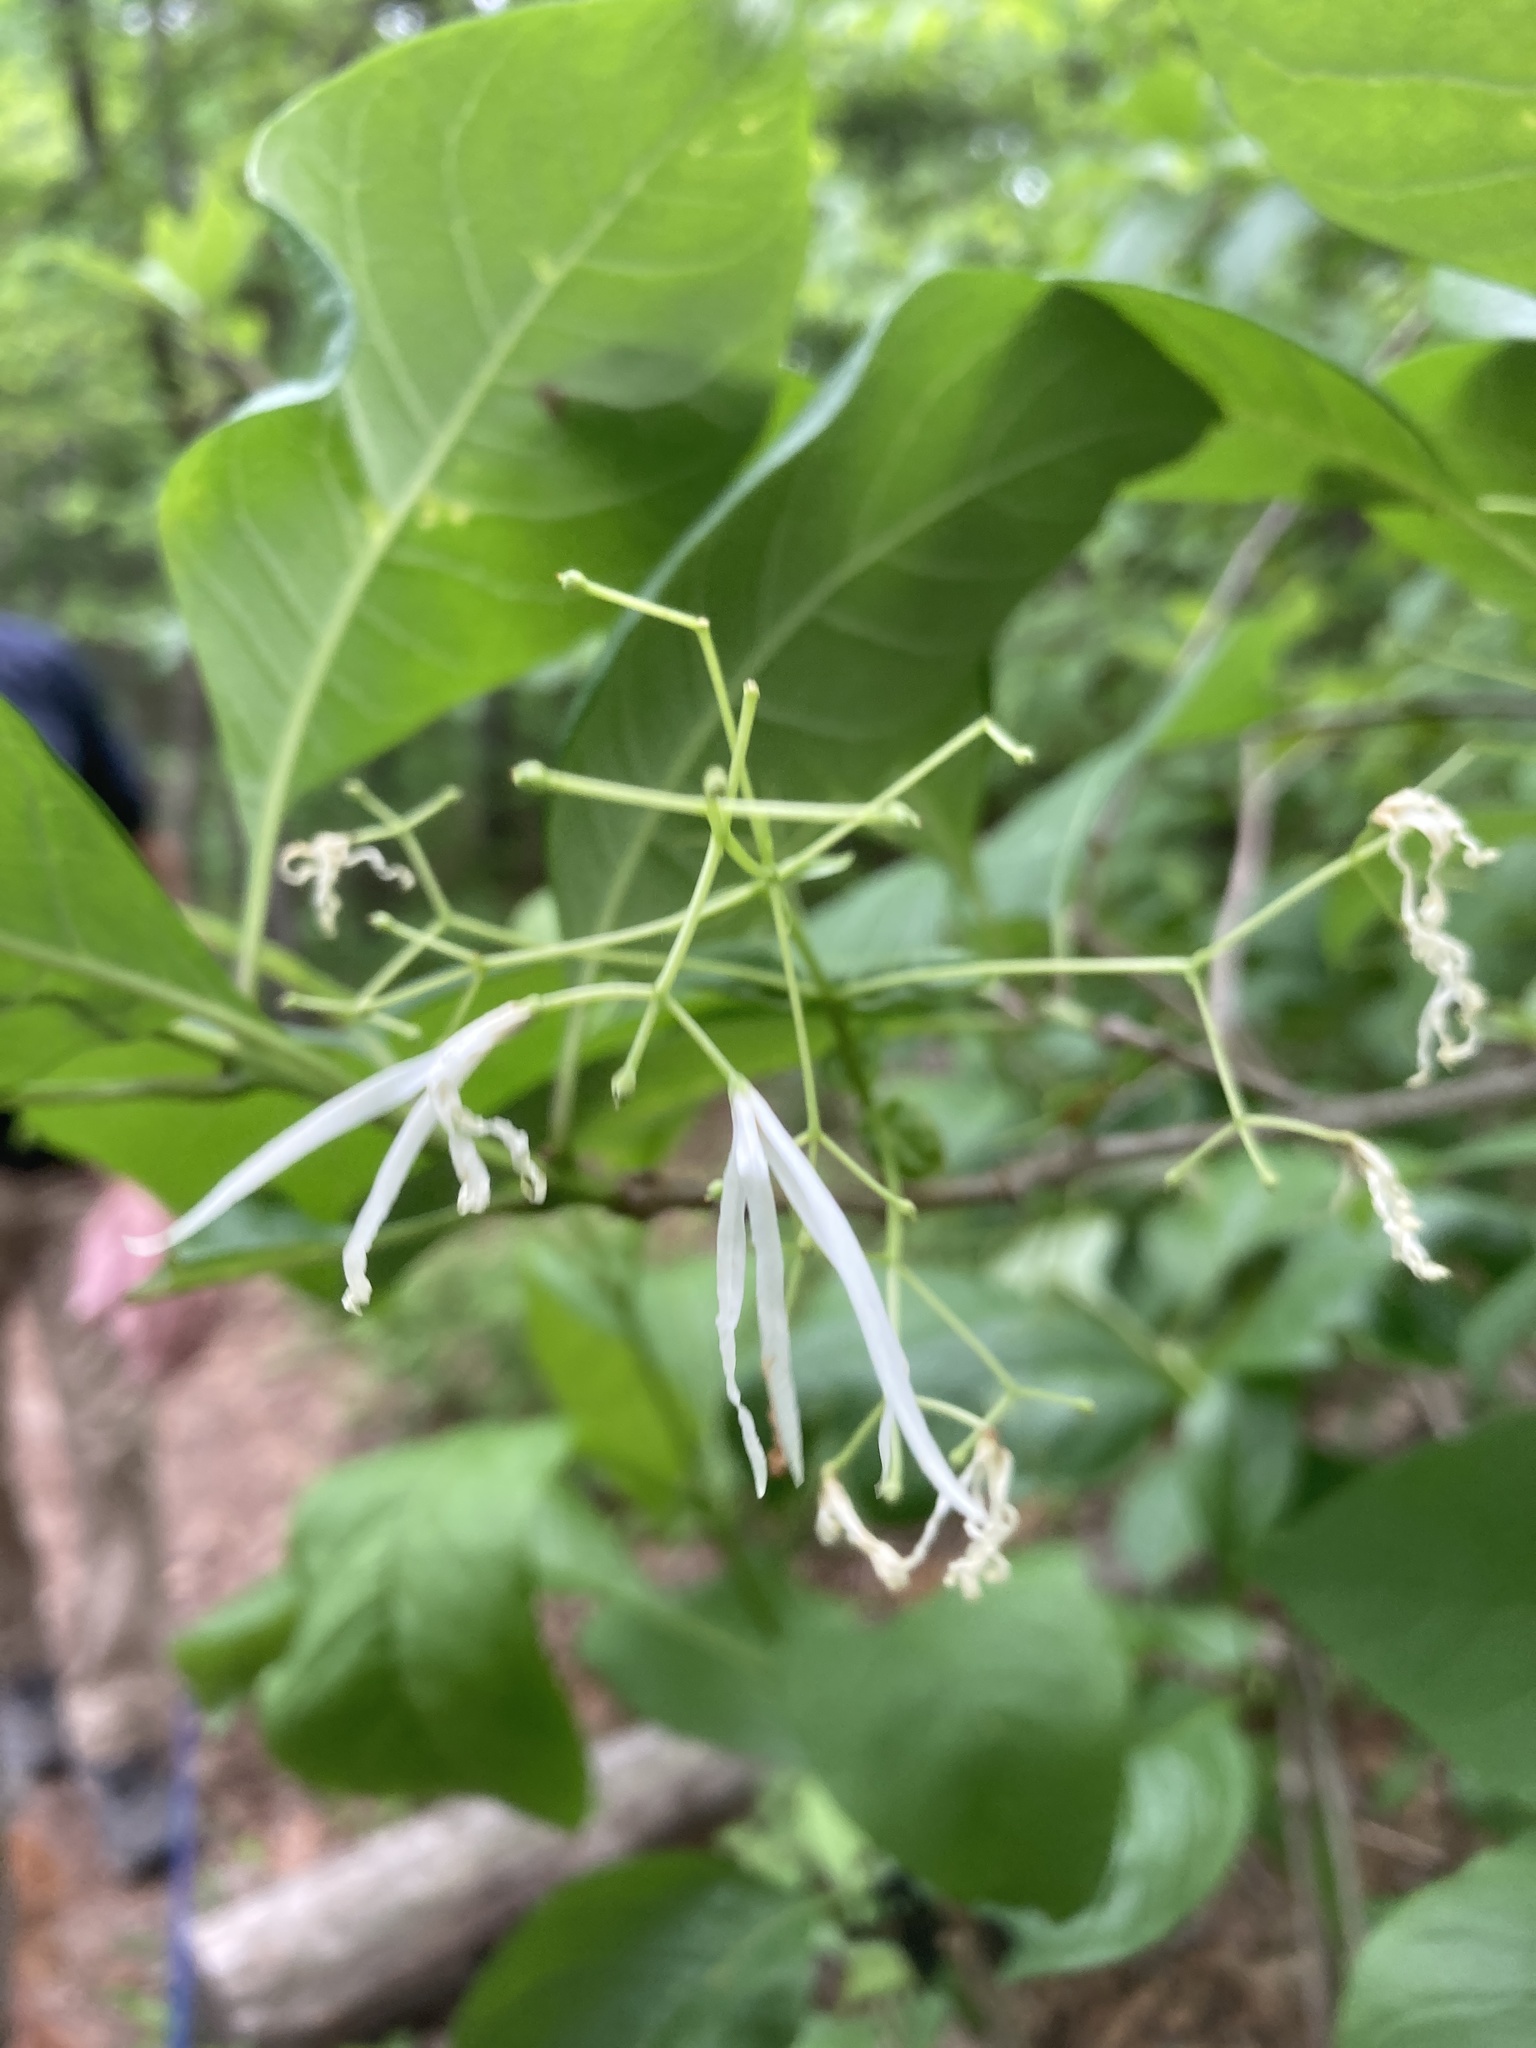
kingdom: Plantae
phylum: Tracheophyta
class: Magnoliopsida
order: Lamiales
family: Oleaceae
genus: Chionanthus
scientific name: Chionanthus virginicus
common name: American fringetree
